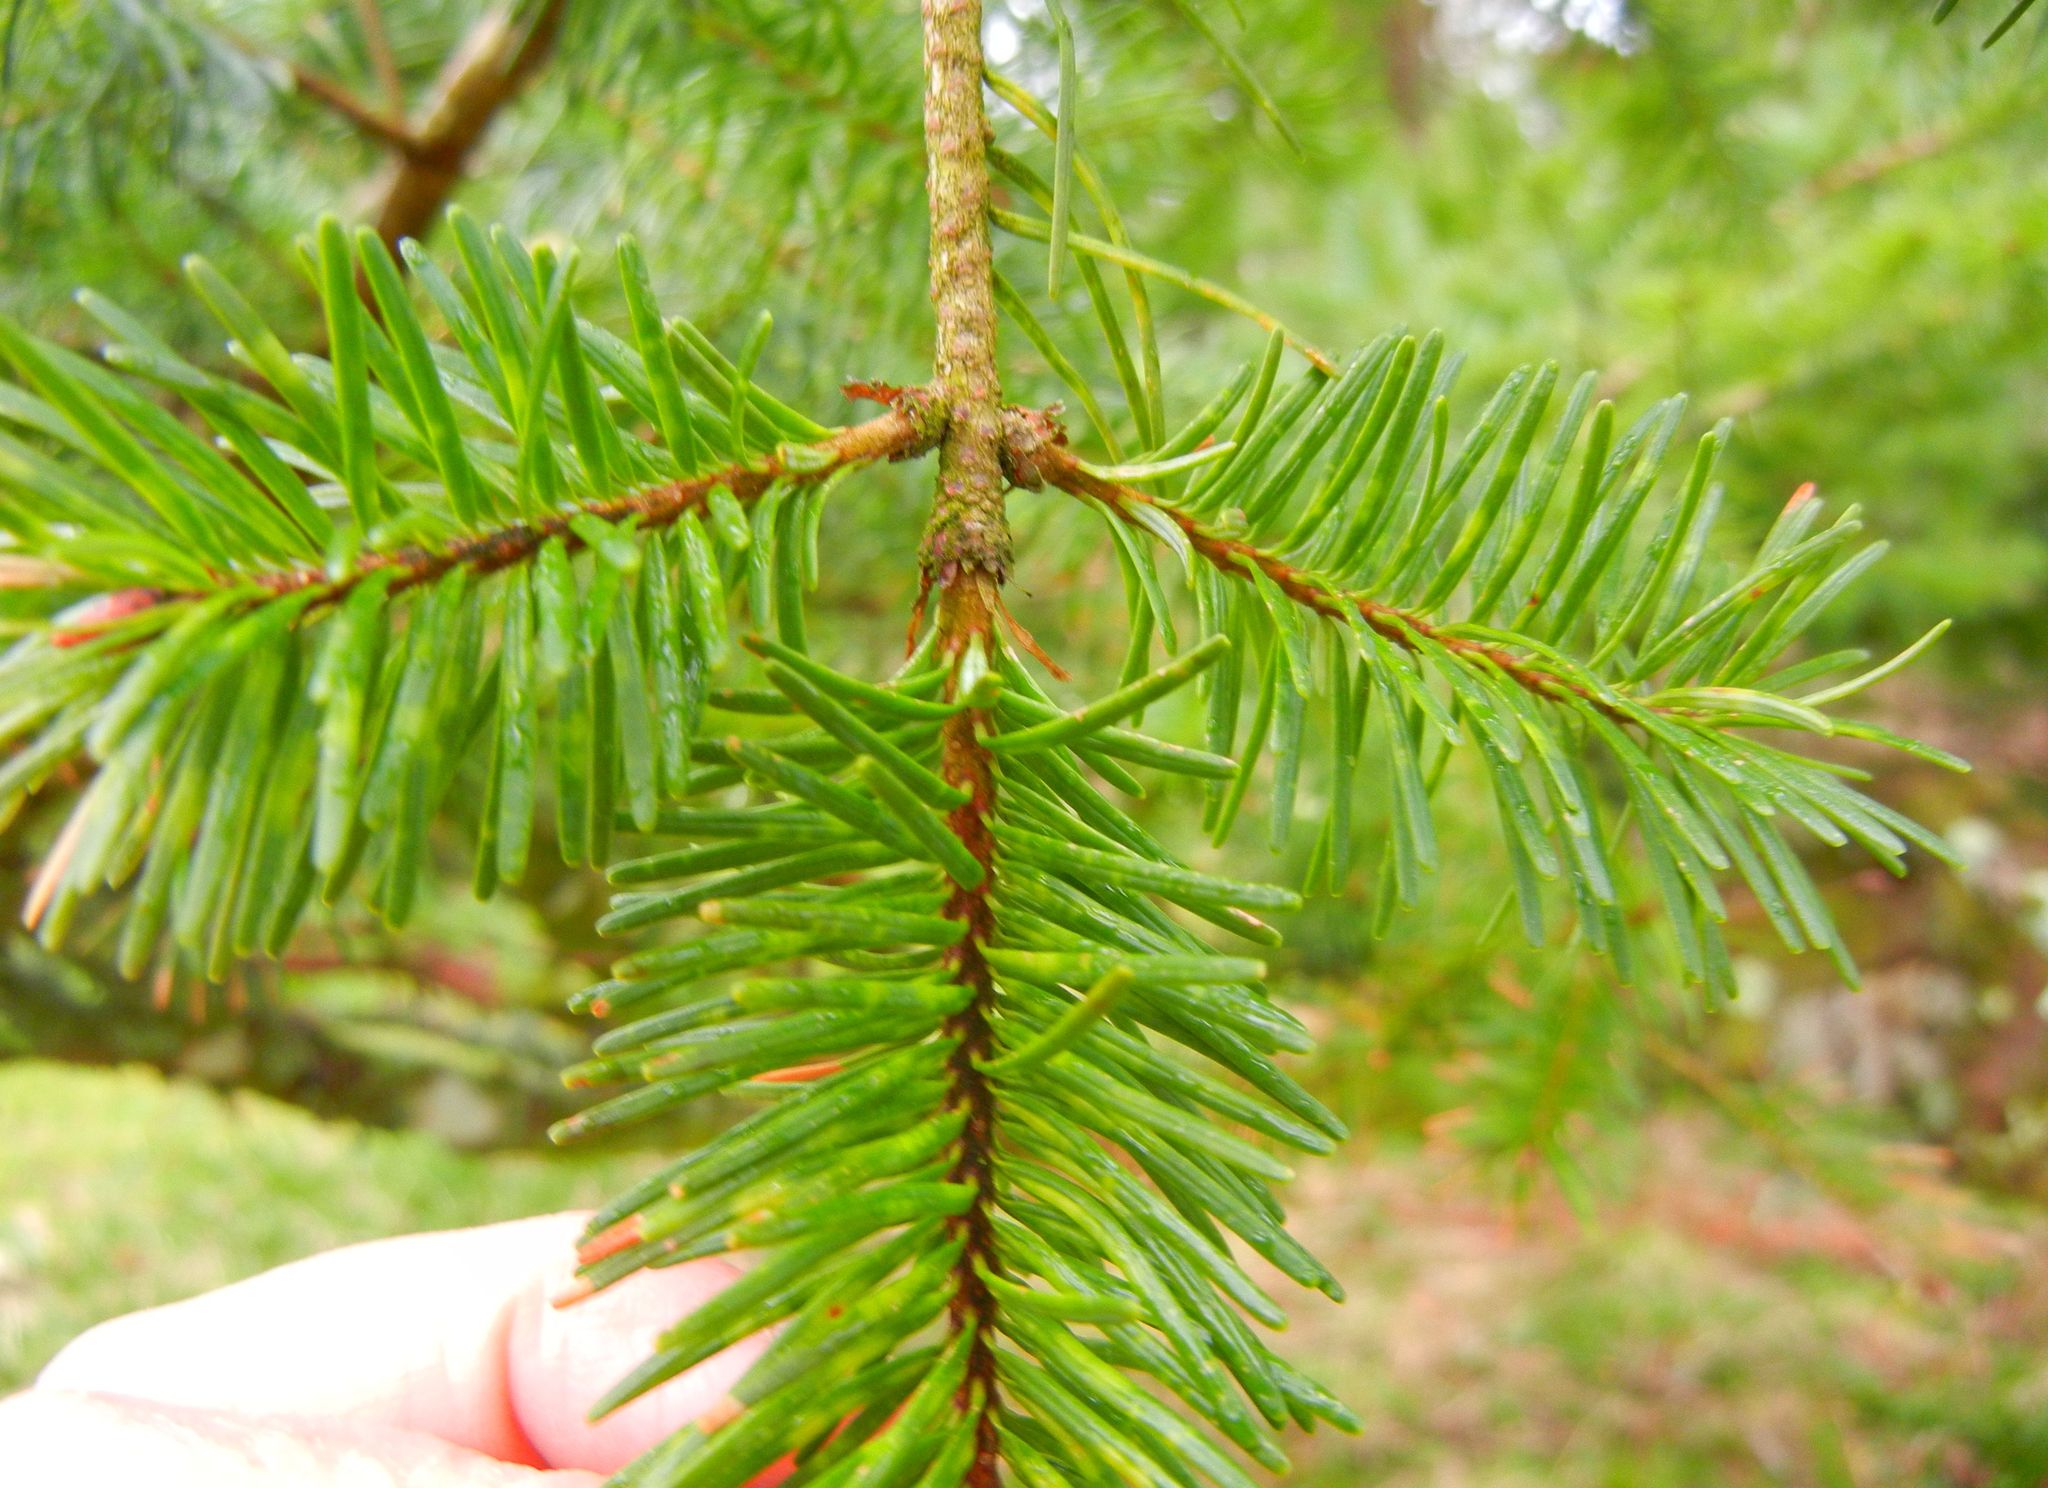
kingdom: Plantae
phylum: Tracheophyta
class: Pinopsida
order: Pinales
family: Pinaceae
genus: Pseudotsuga
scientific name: Pseudotsuga menziesii
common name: Douglas fir
